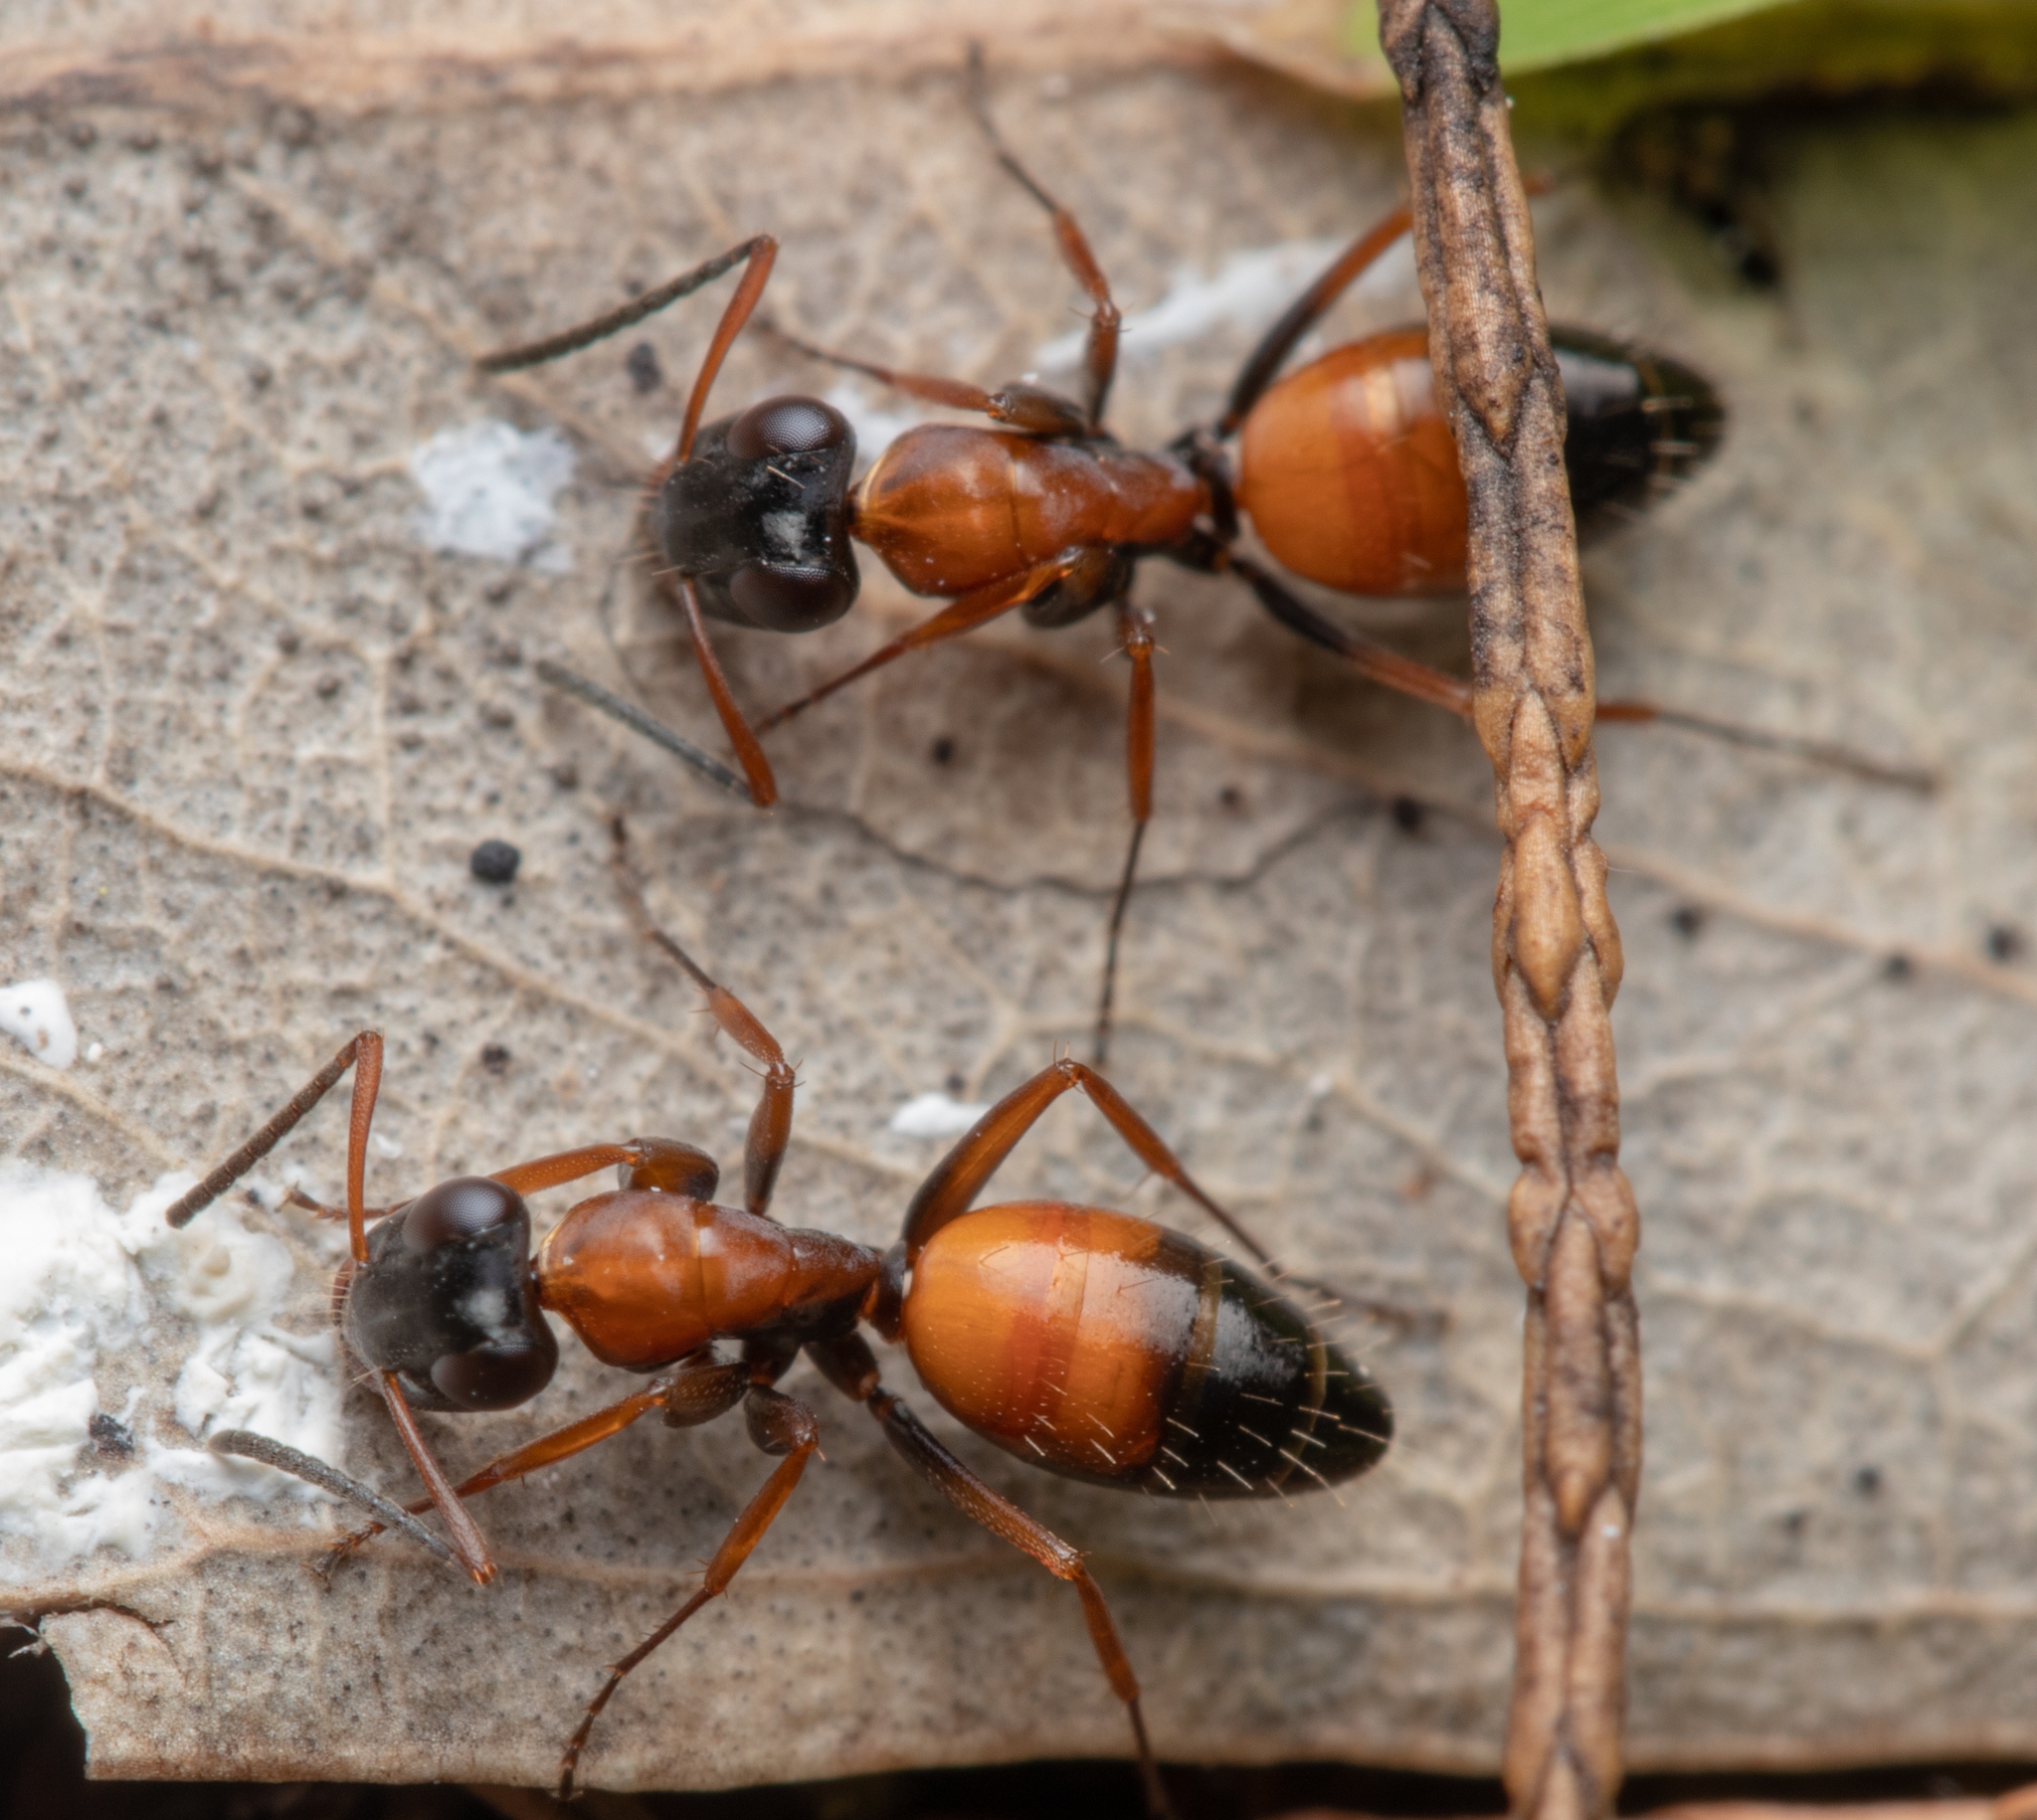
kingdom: Animalia
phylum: Arthropoda
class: Insecta
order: Hymenoptera
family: Formicidae
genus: Opisthopsis
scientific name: Opisthopsis pictus
